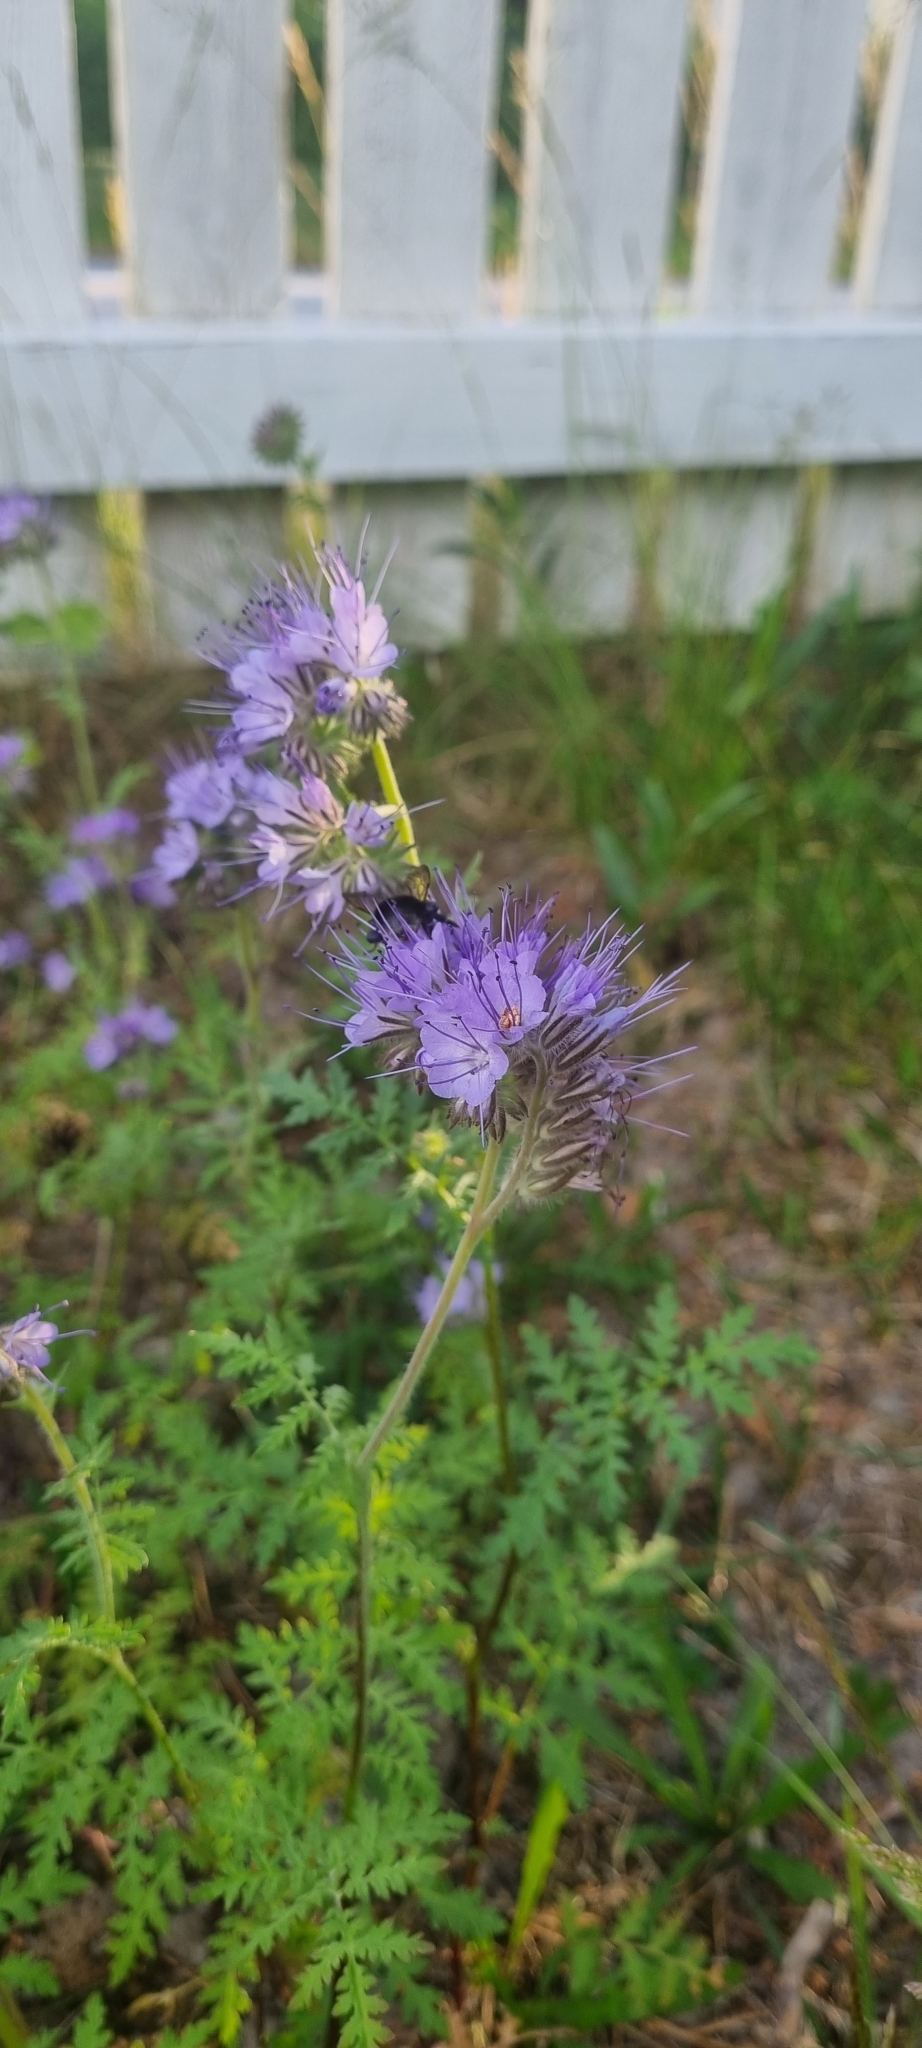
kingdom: Animalia
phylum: Arthropoda
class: Insecta
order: Hymenoptera
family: Apidae
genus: Bombus
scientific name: Bombus hypnorum
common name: New garden bumblebee
